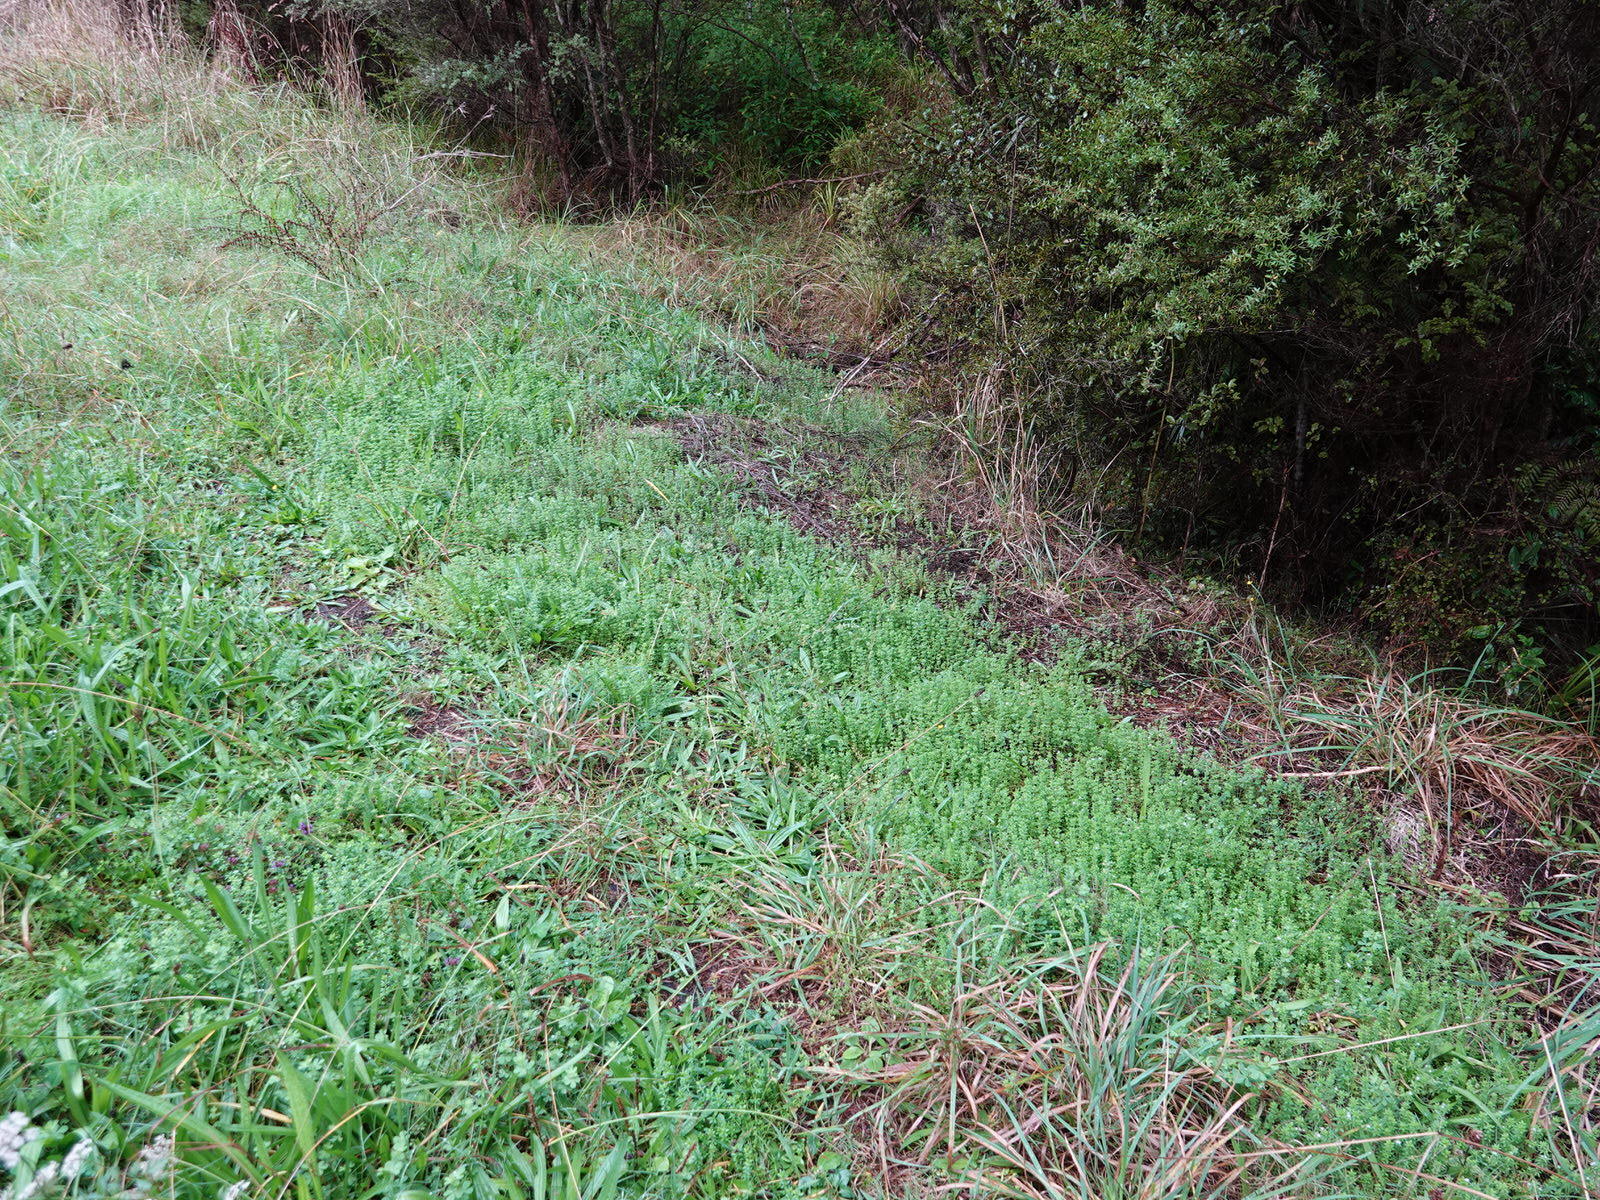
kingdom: Plantae
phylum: Tracheophyta
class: Magnoliopsida
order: Gentianales
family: Rubiaceae
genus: Sherardia
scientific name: Sherardia arvensis
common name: Field madder
